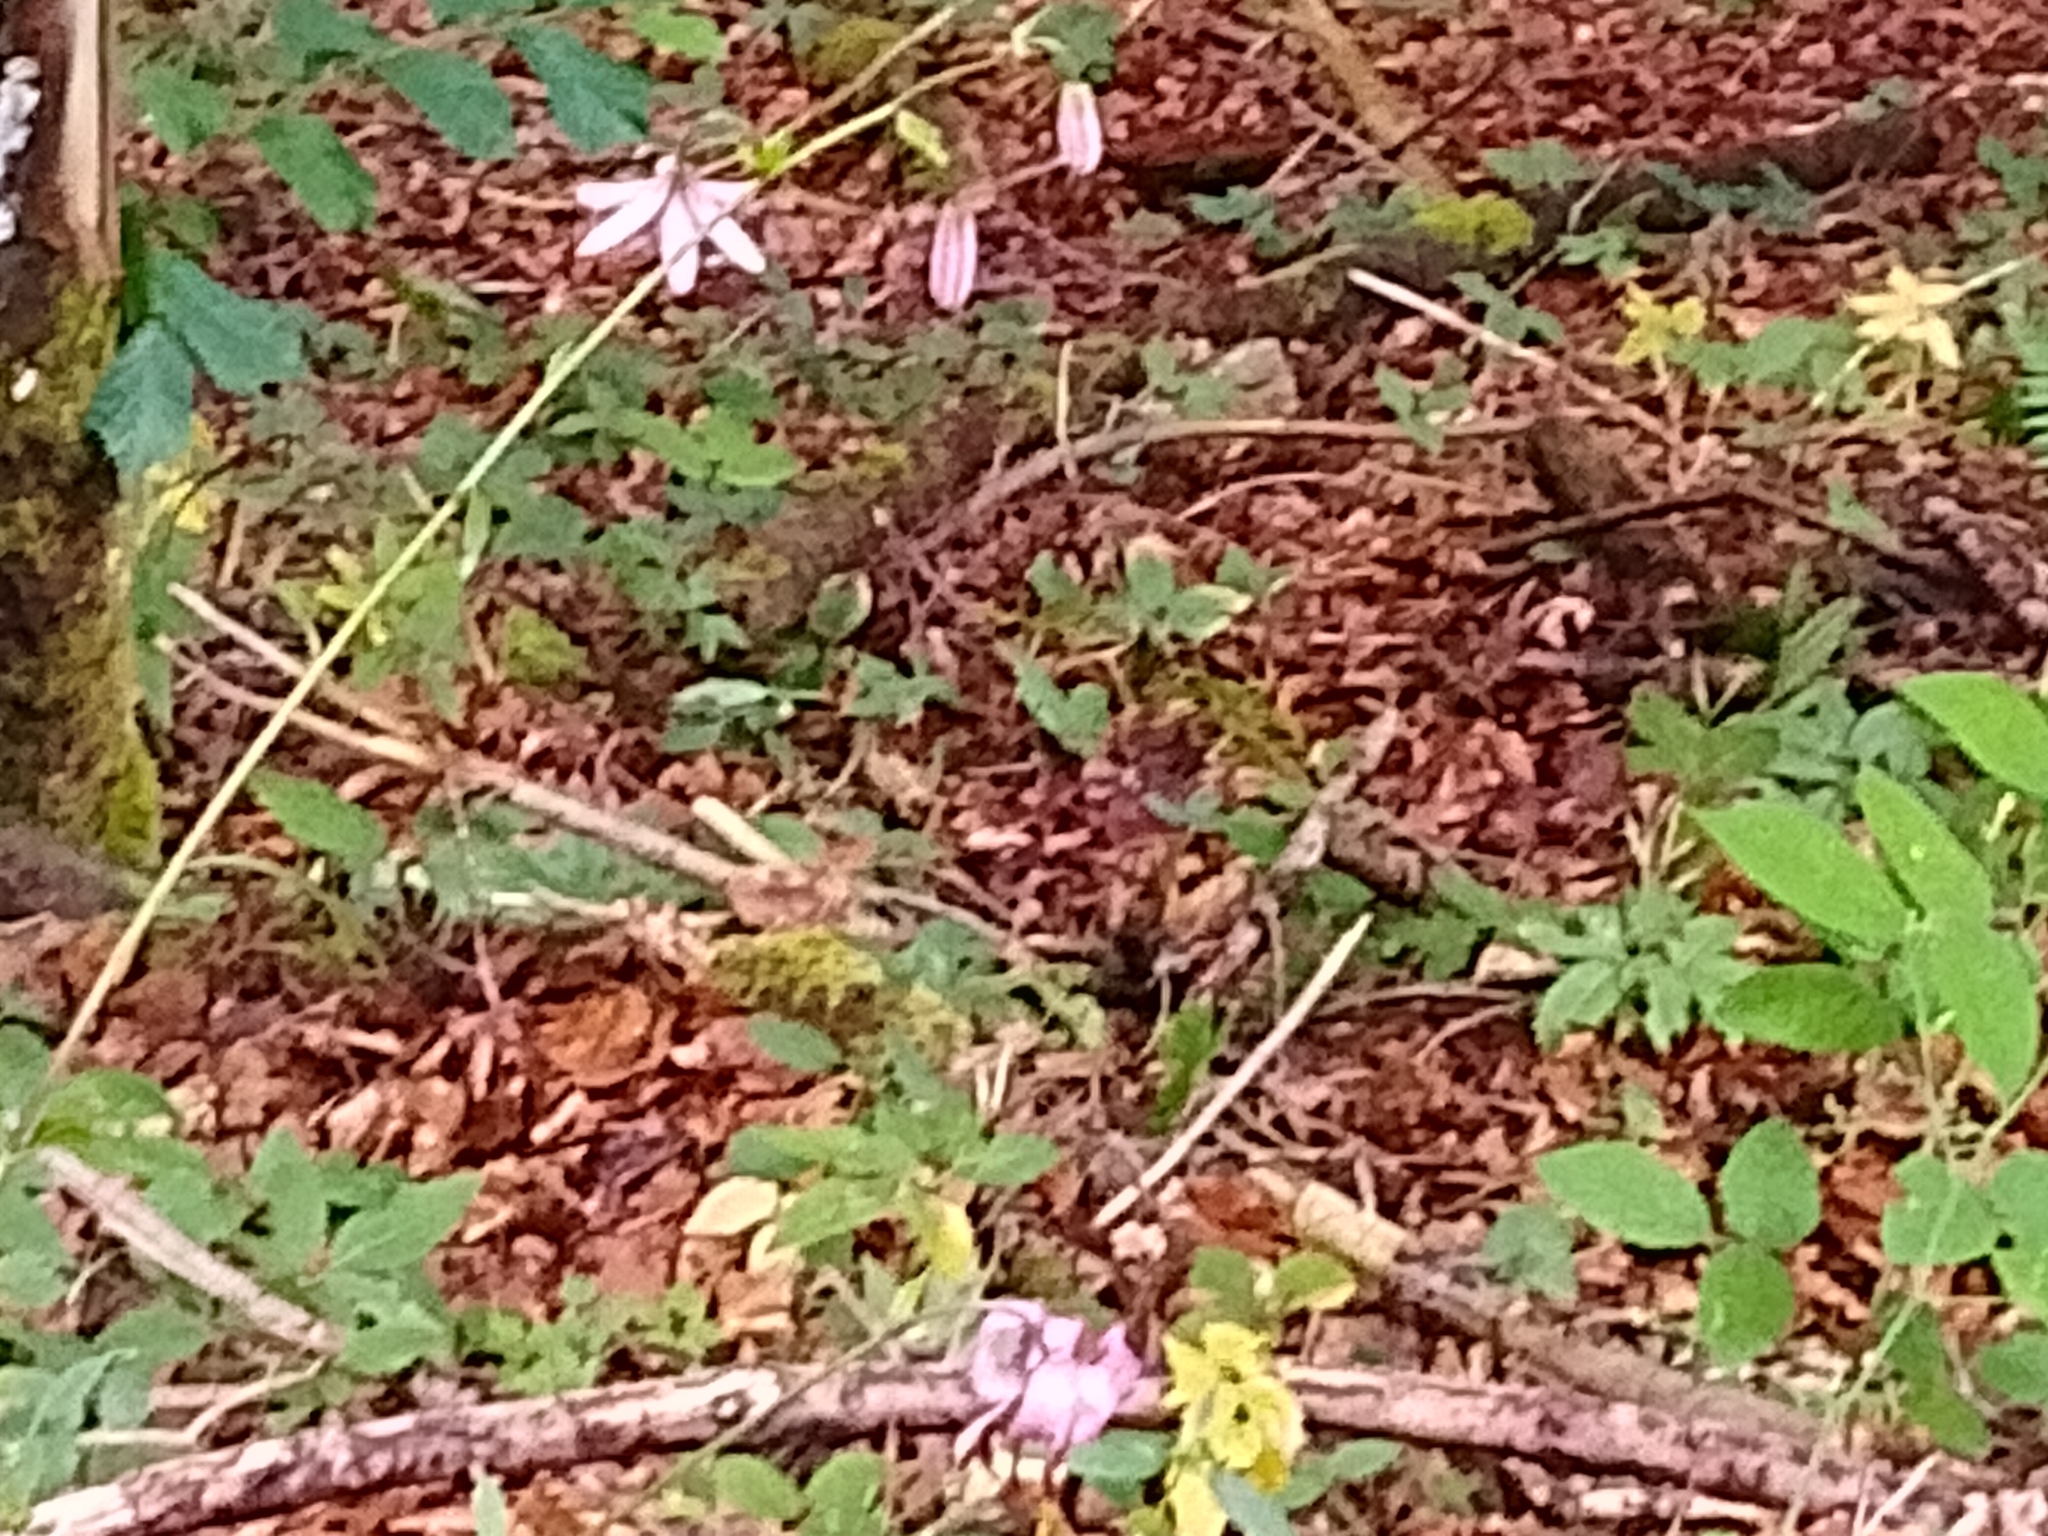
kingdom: Plantae
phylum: Tracheophyta
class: Liliopsida
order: Liliales
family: Liliaceae
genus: Lilium
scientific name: Lilium martagon
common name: Martagon lily
